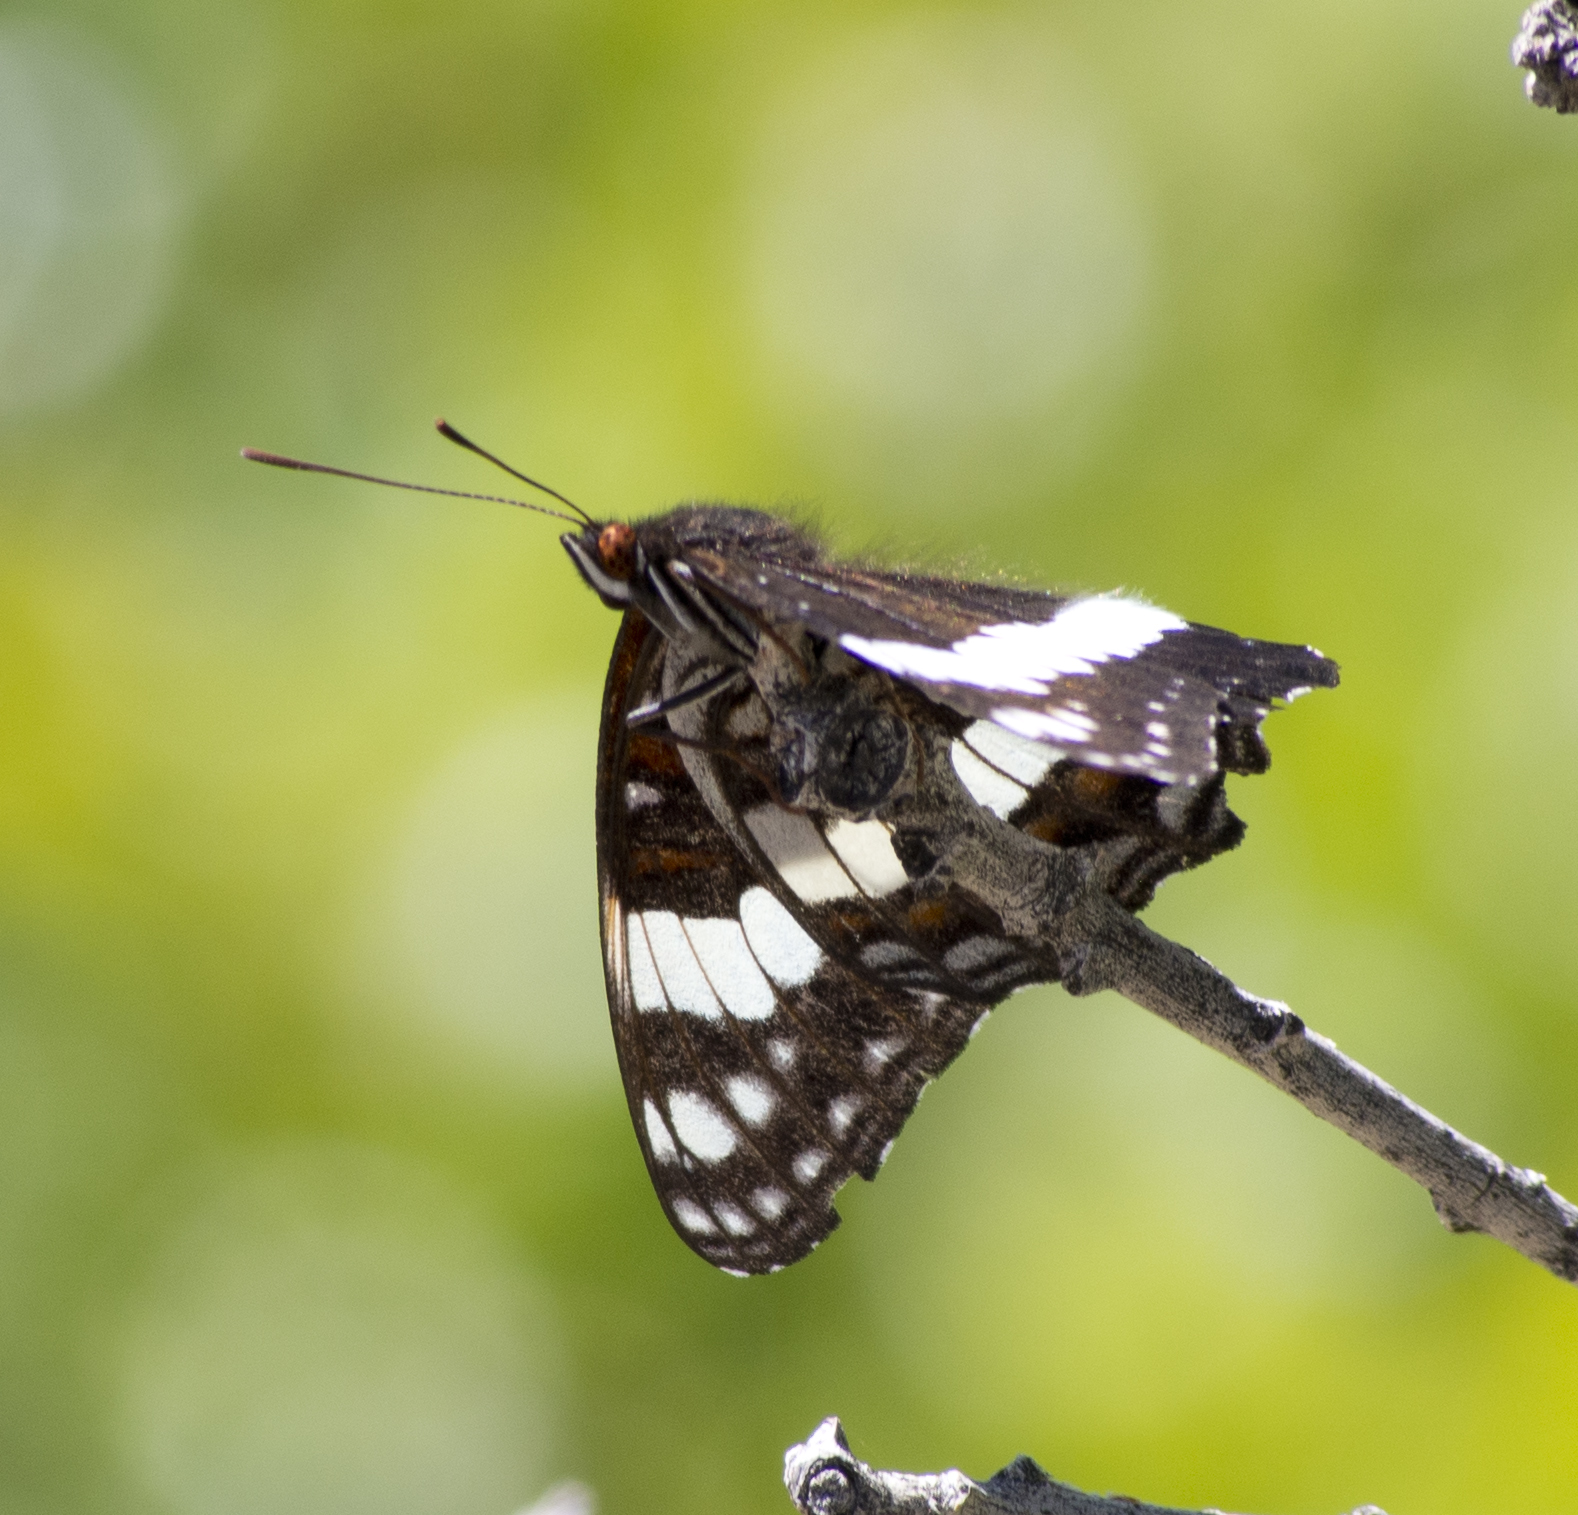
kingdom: Animalia
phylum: Arthropoda
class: Insecta
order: Lepidoptera
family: Nymphalidae
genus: Limenitis
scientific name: Limenitis weidemeyerii
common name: Weidemeyer's admiral
